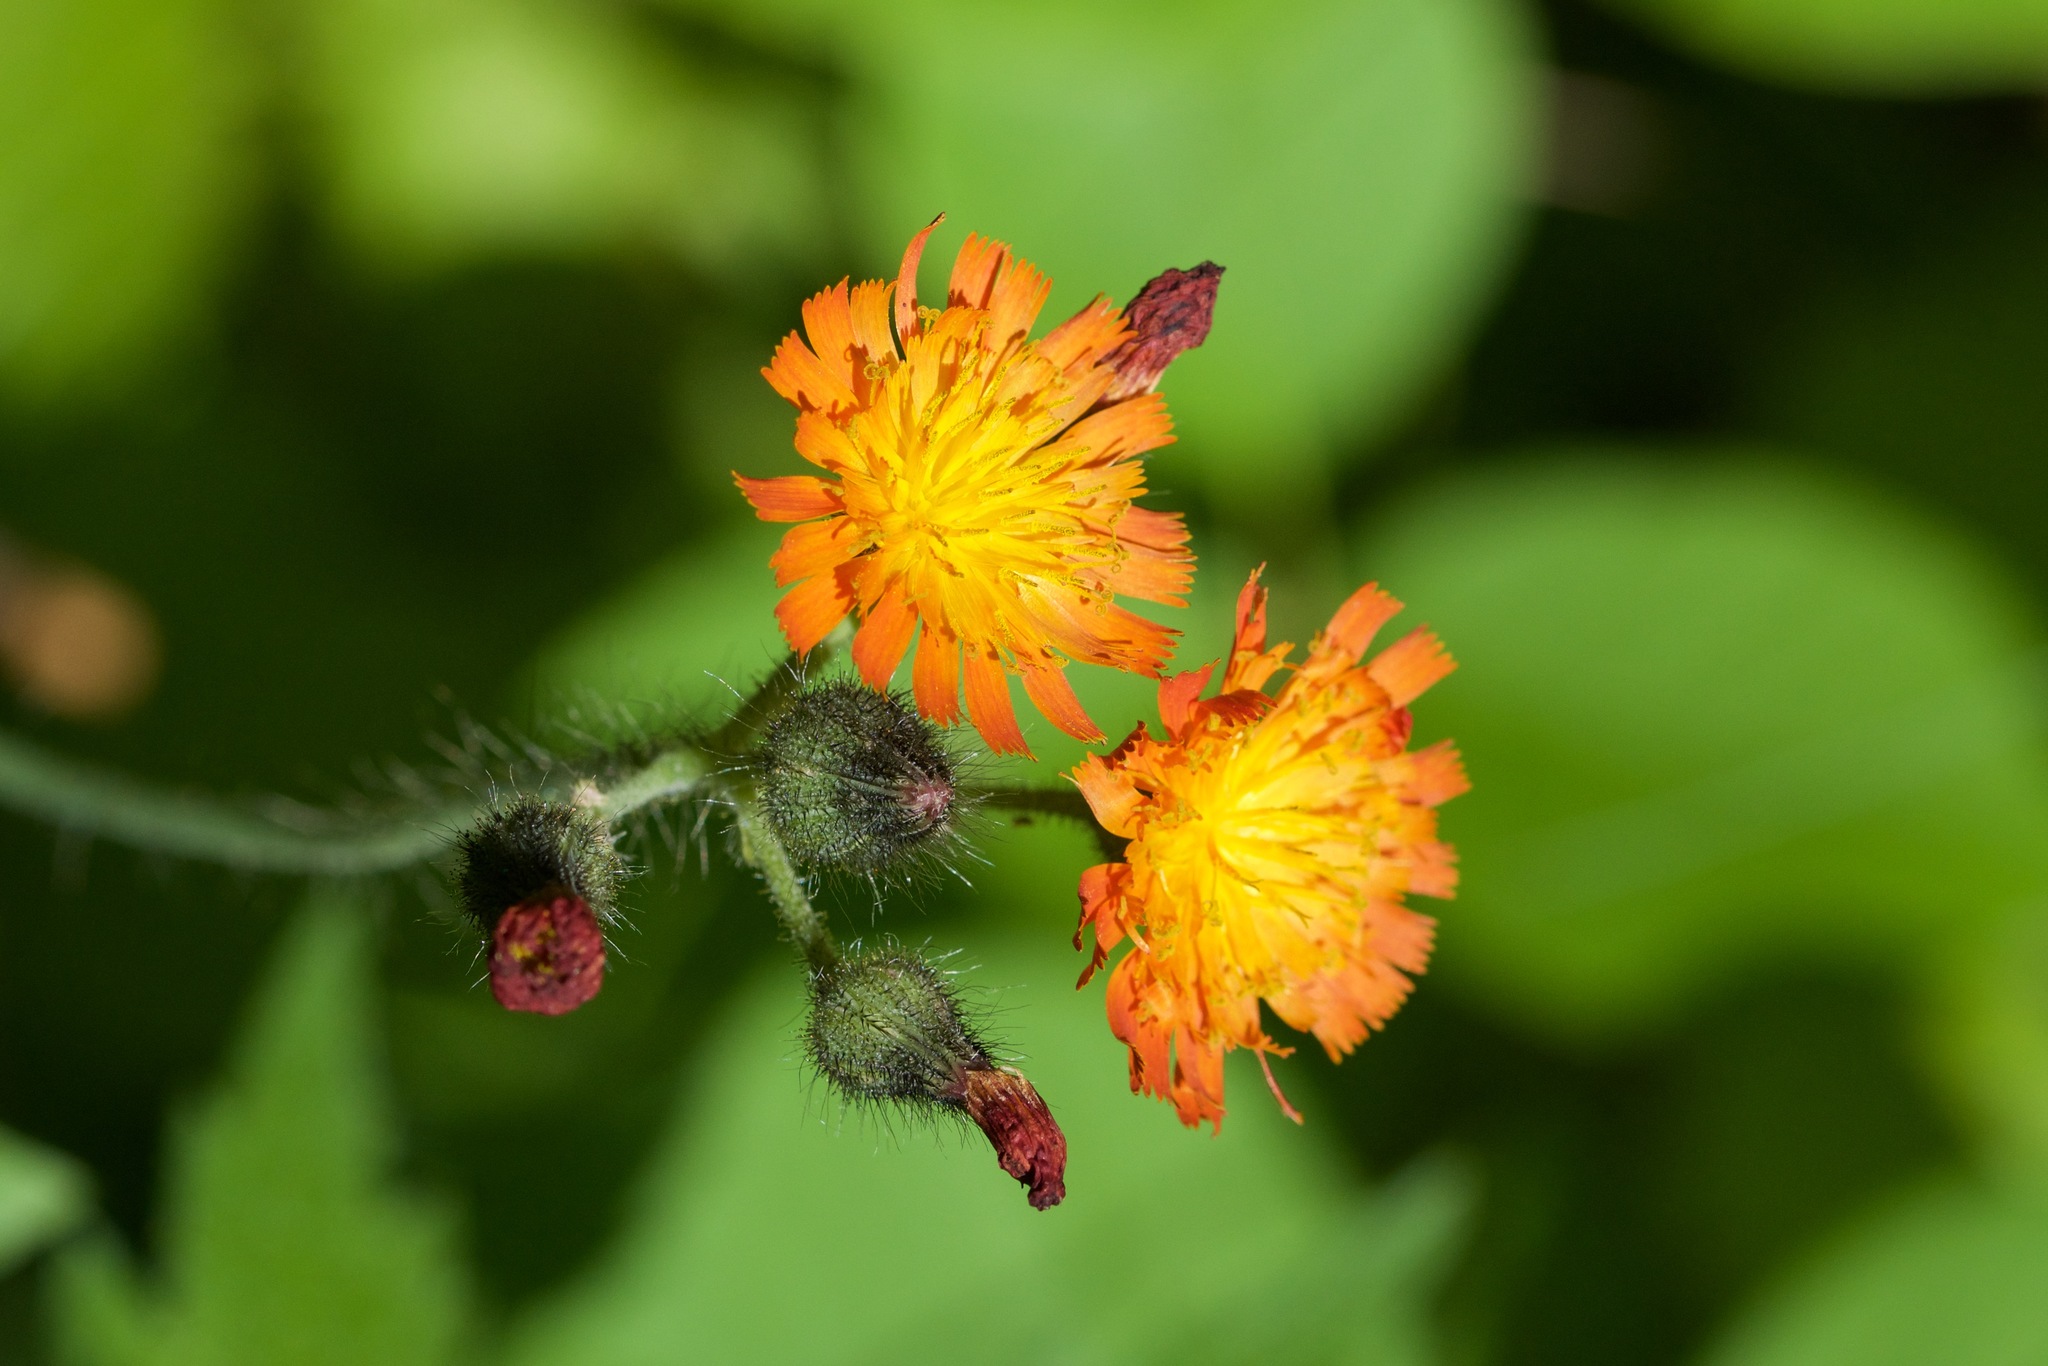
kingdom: Plantae
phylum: Tracheophyta
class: Magnoliopsida
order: Asterales
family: Asteraceae
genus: Pilosella
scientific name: Pilosella aurantiaca
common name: Fox-and-cubs
